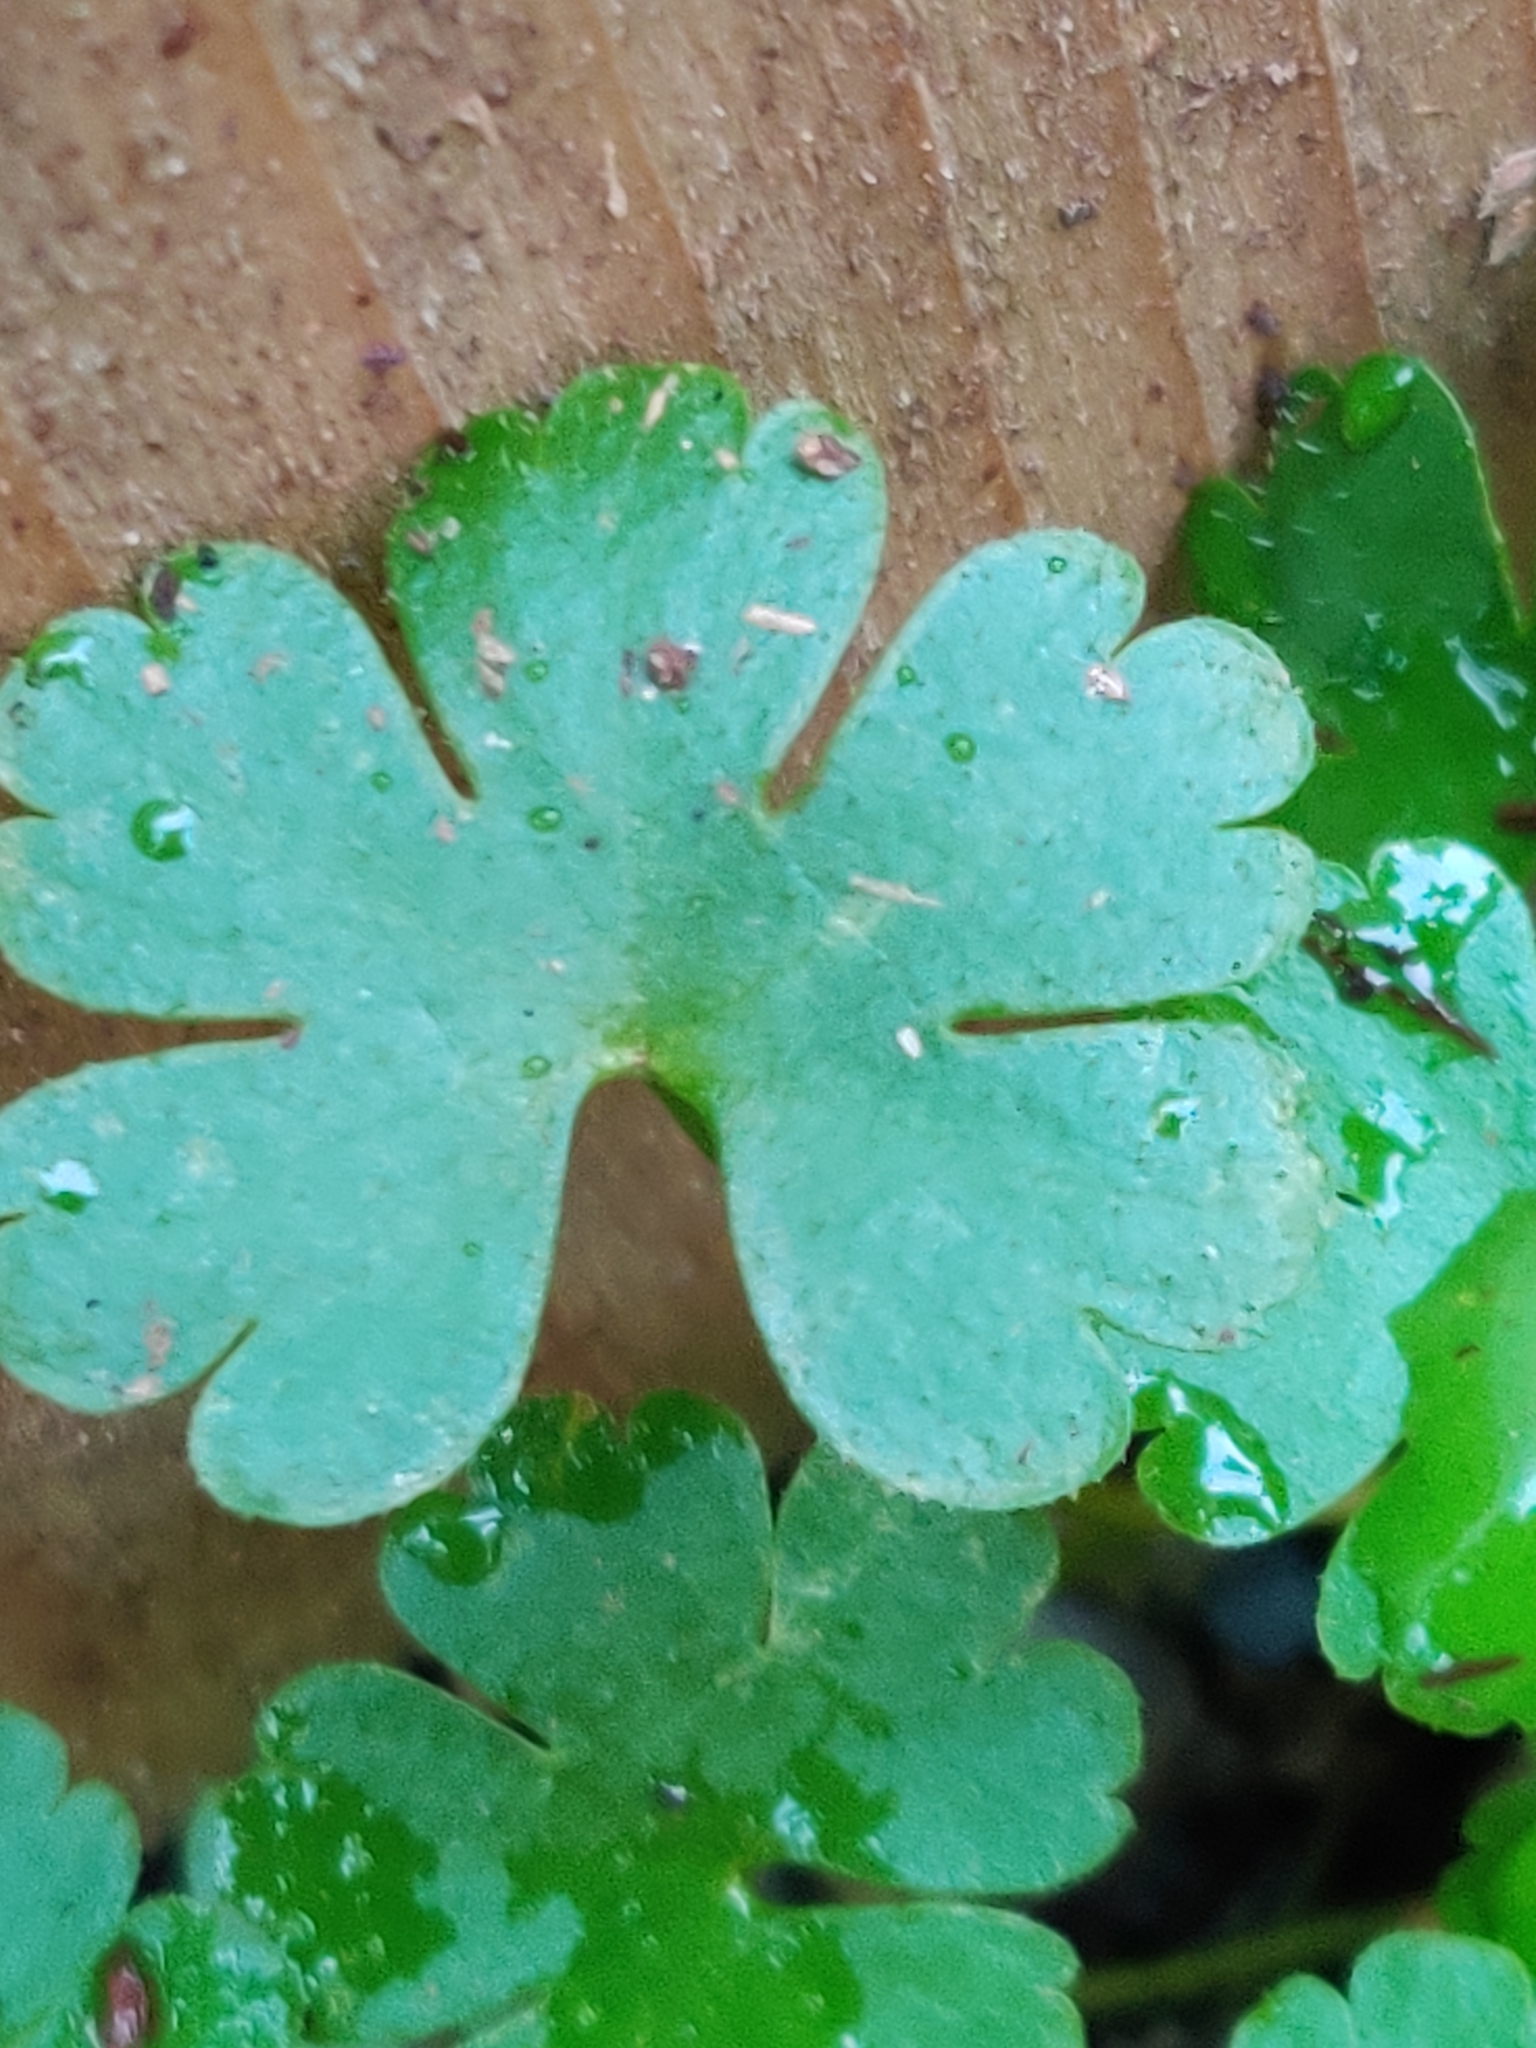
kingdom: Plantae
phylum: Tracheophyta
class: Magnoliopsida
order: Geraniales
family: Geraniaceae
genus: Geranium
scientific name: Geranium lucidum
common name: Shining crane's-bill
